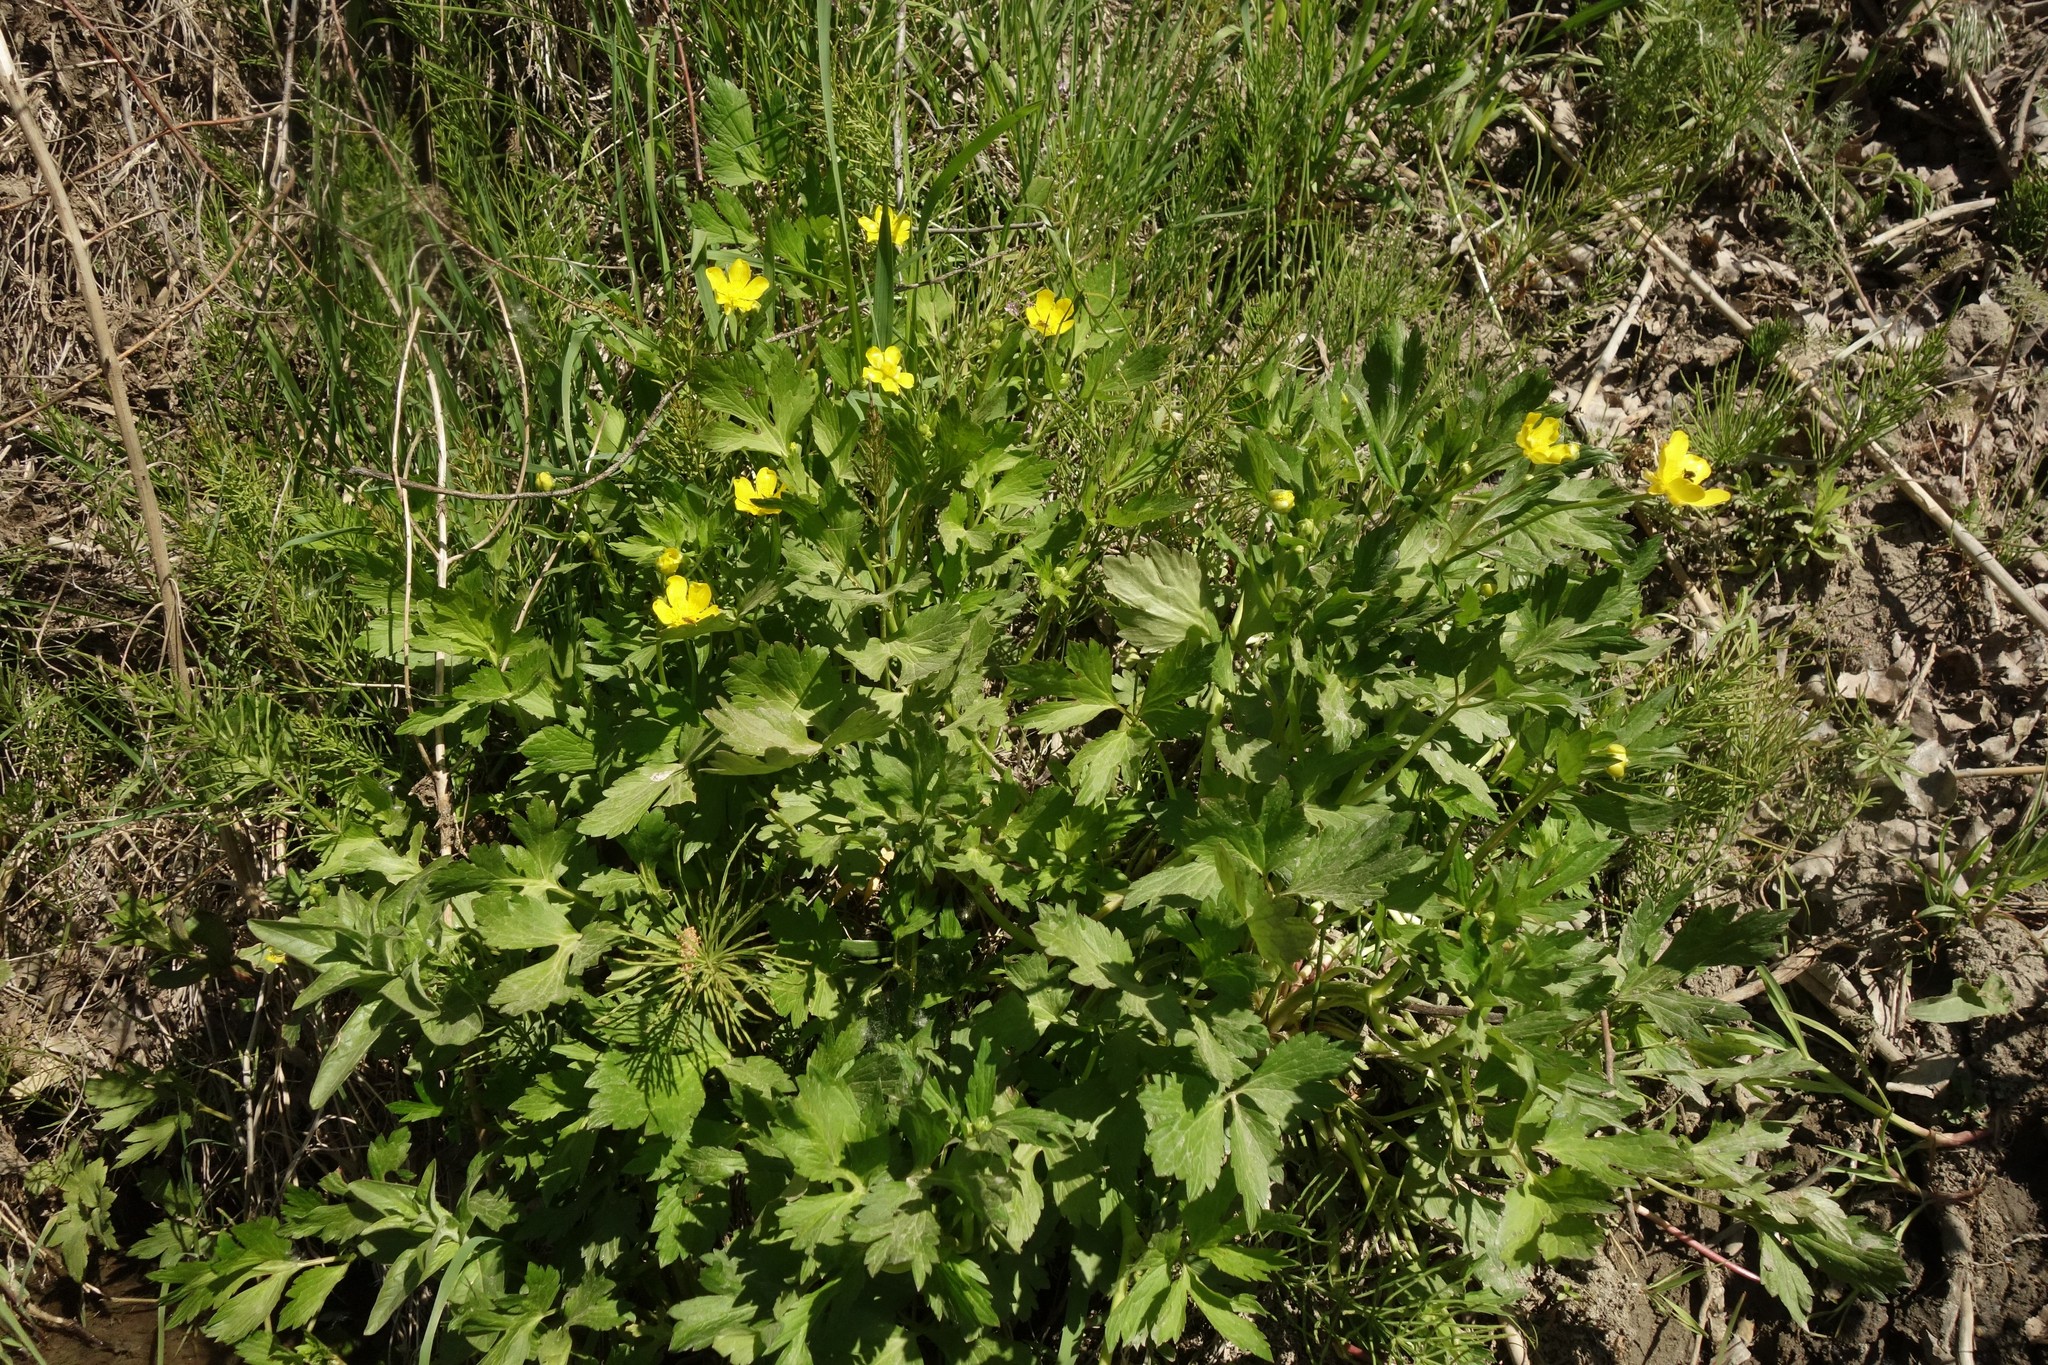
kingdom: Plantae
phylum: Tracheophyta
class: Magnoliopsida
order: Ranunculales
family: Ranunculaceae
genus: Ranunculus
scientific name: Ranunculus repens
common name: Creeping buttercup
